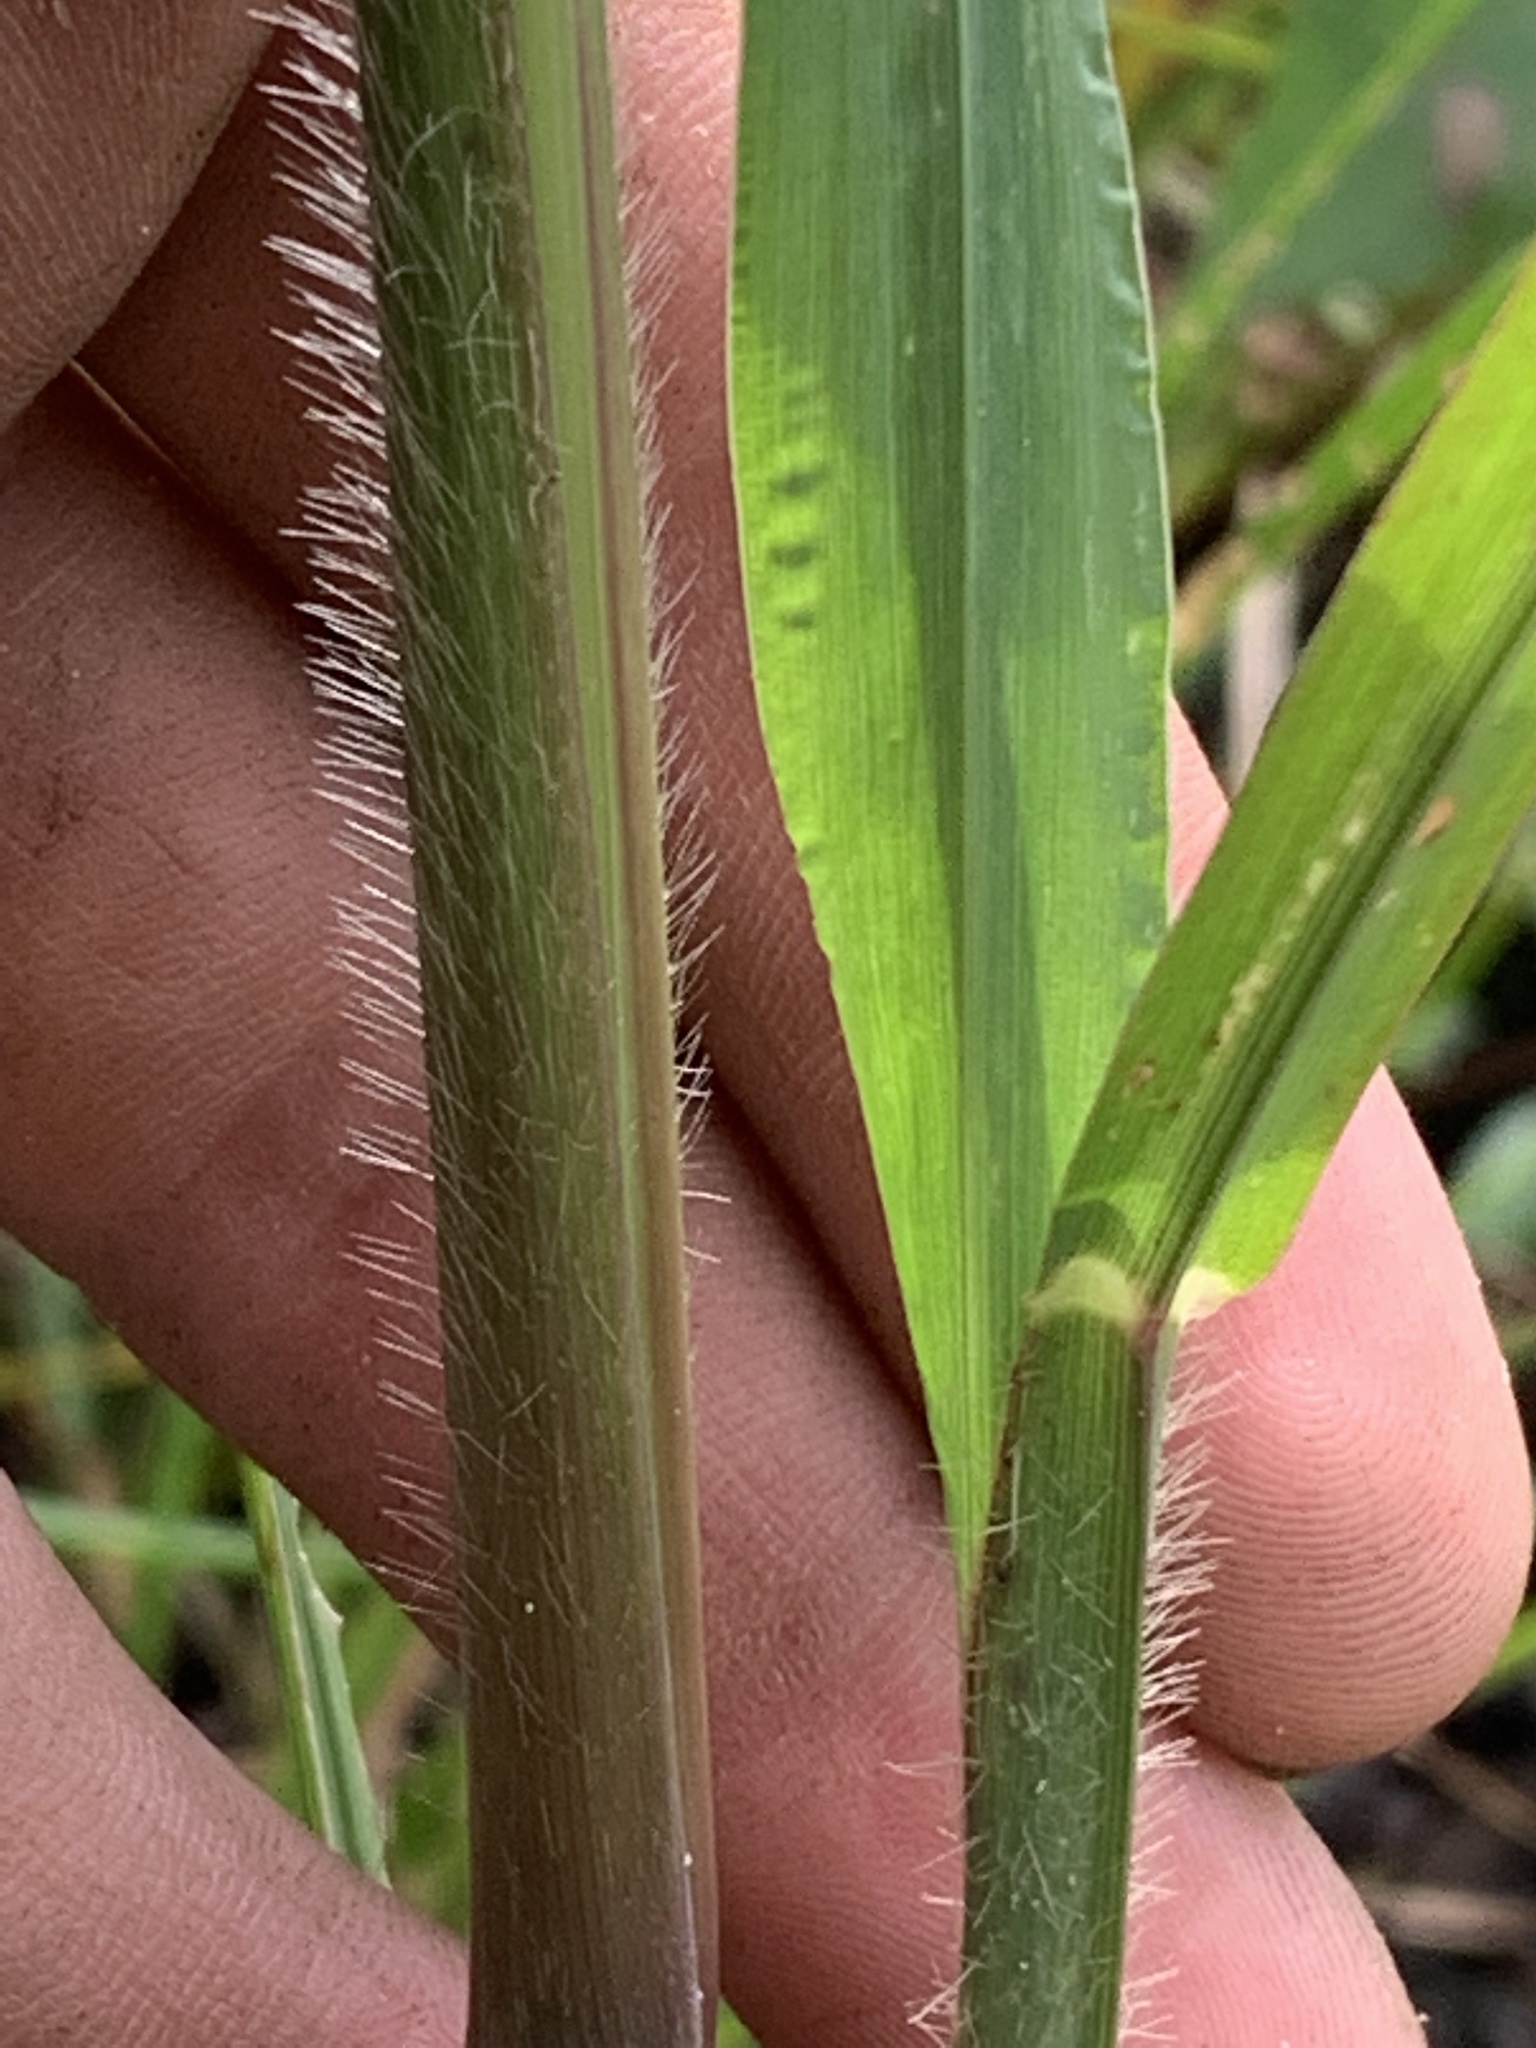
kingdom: Plantae
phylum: Tracheophyta
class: Liliopsida
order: Poales
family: Poaceae
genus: Echinochloa
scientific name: Echinochloa walteri
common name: Coast barnyard grass
